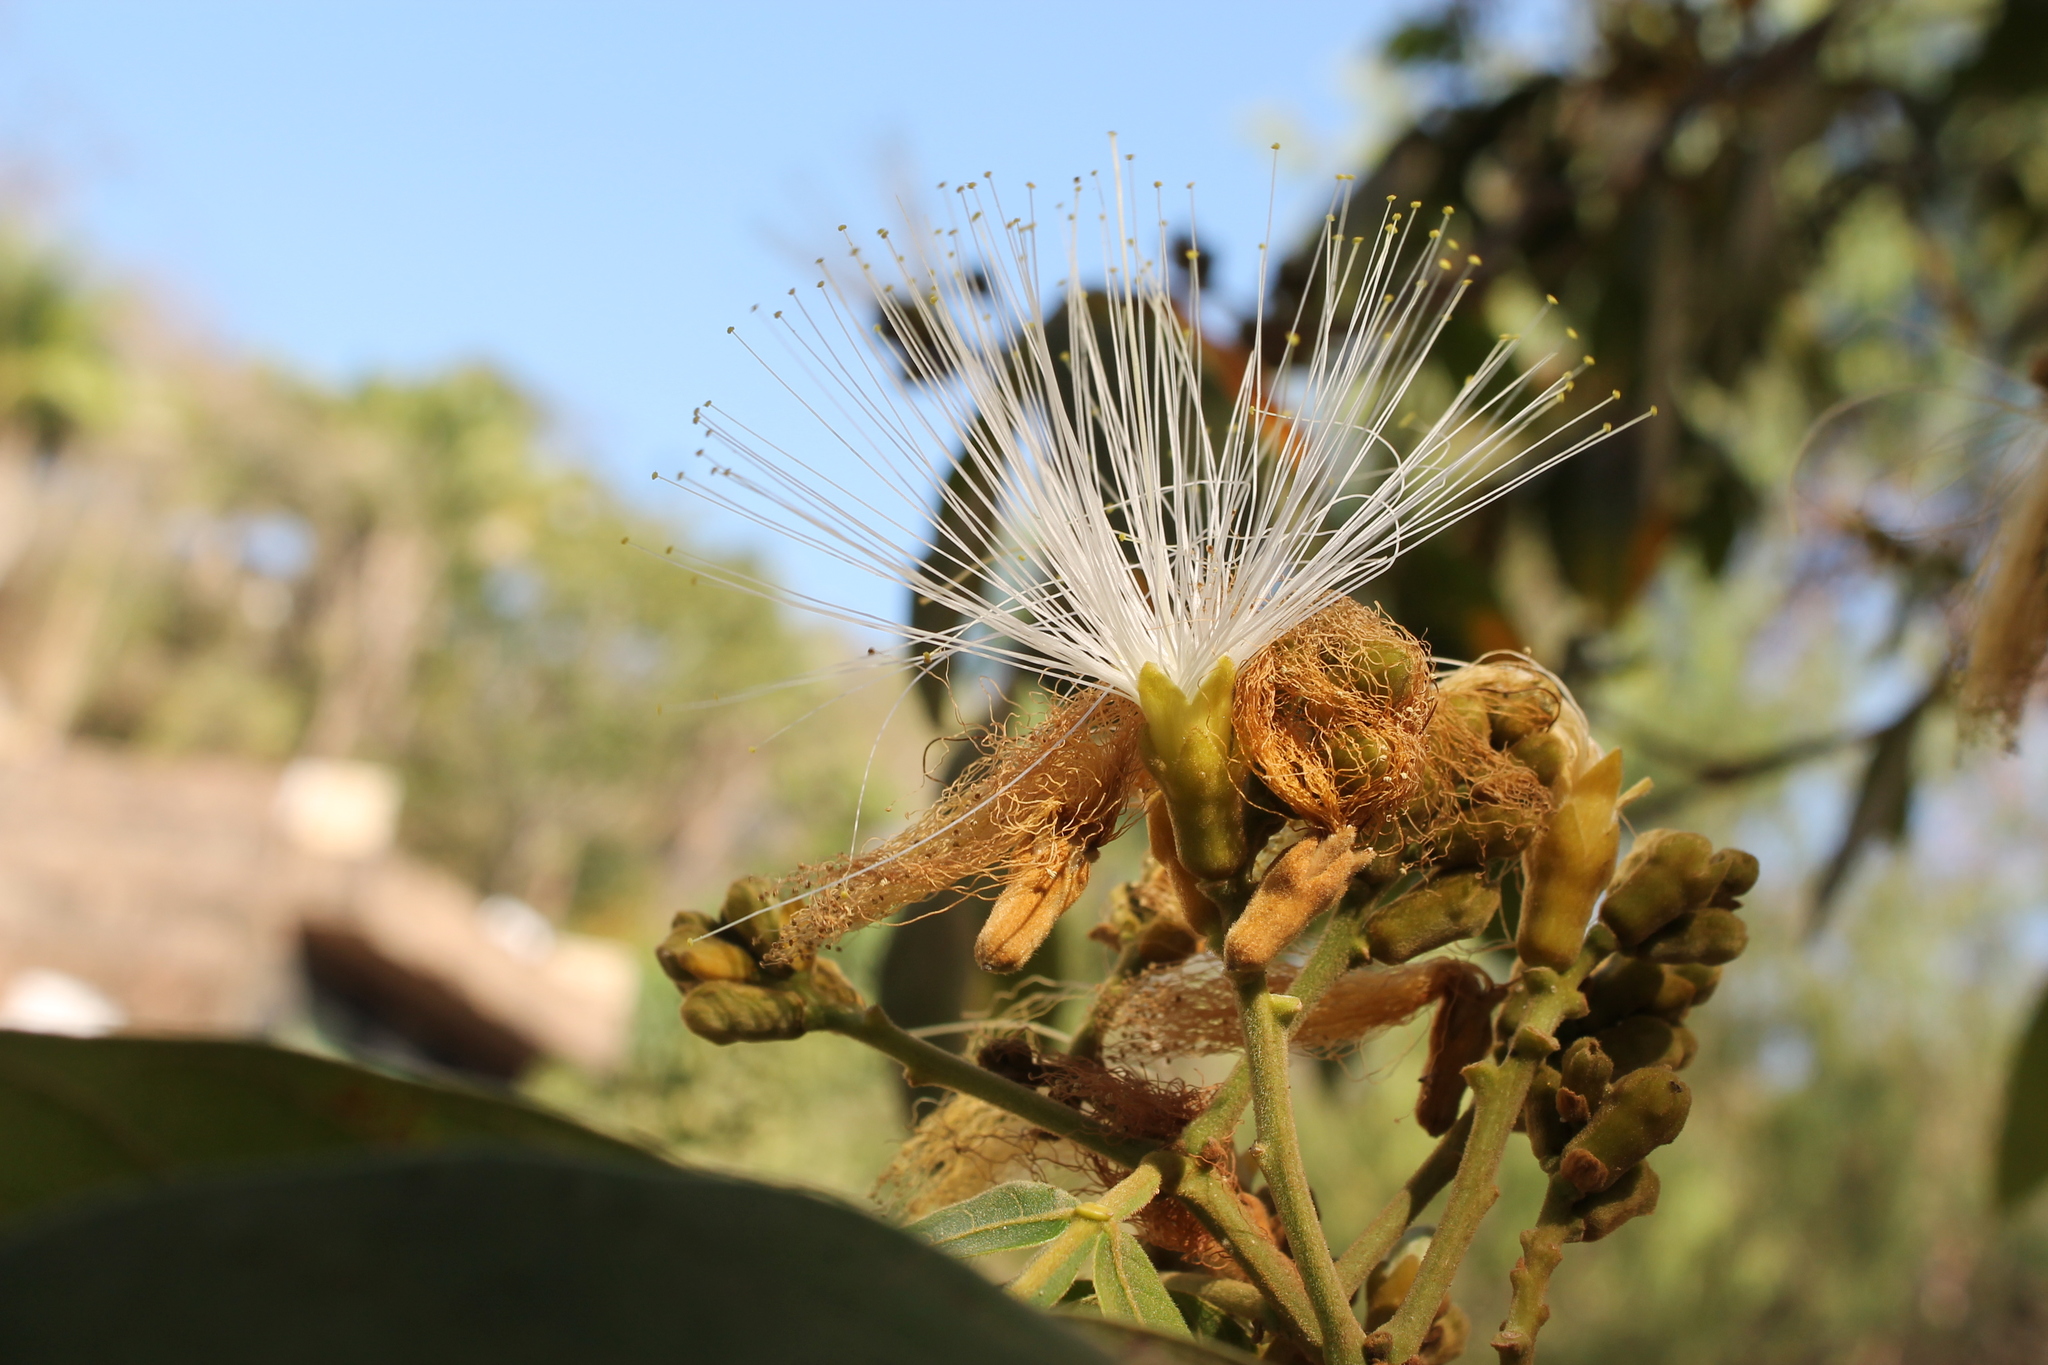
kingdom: Plantae
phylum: Tracheophyta
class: Magnoliopsida
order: Fabales
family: Fabaceae
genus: Inga
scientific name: Inga vera
